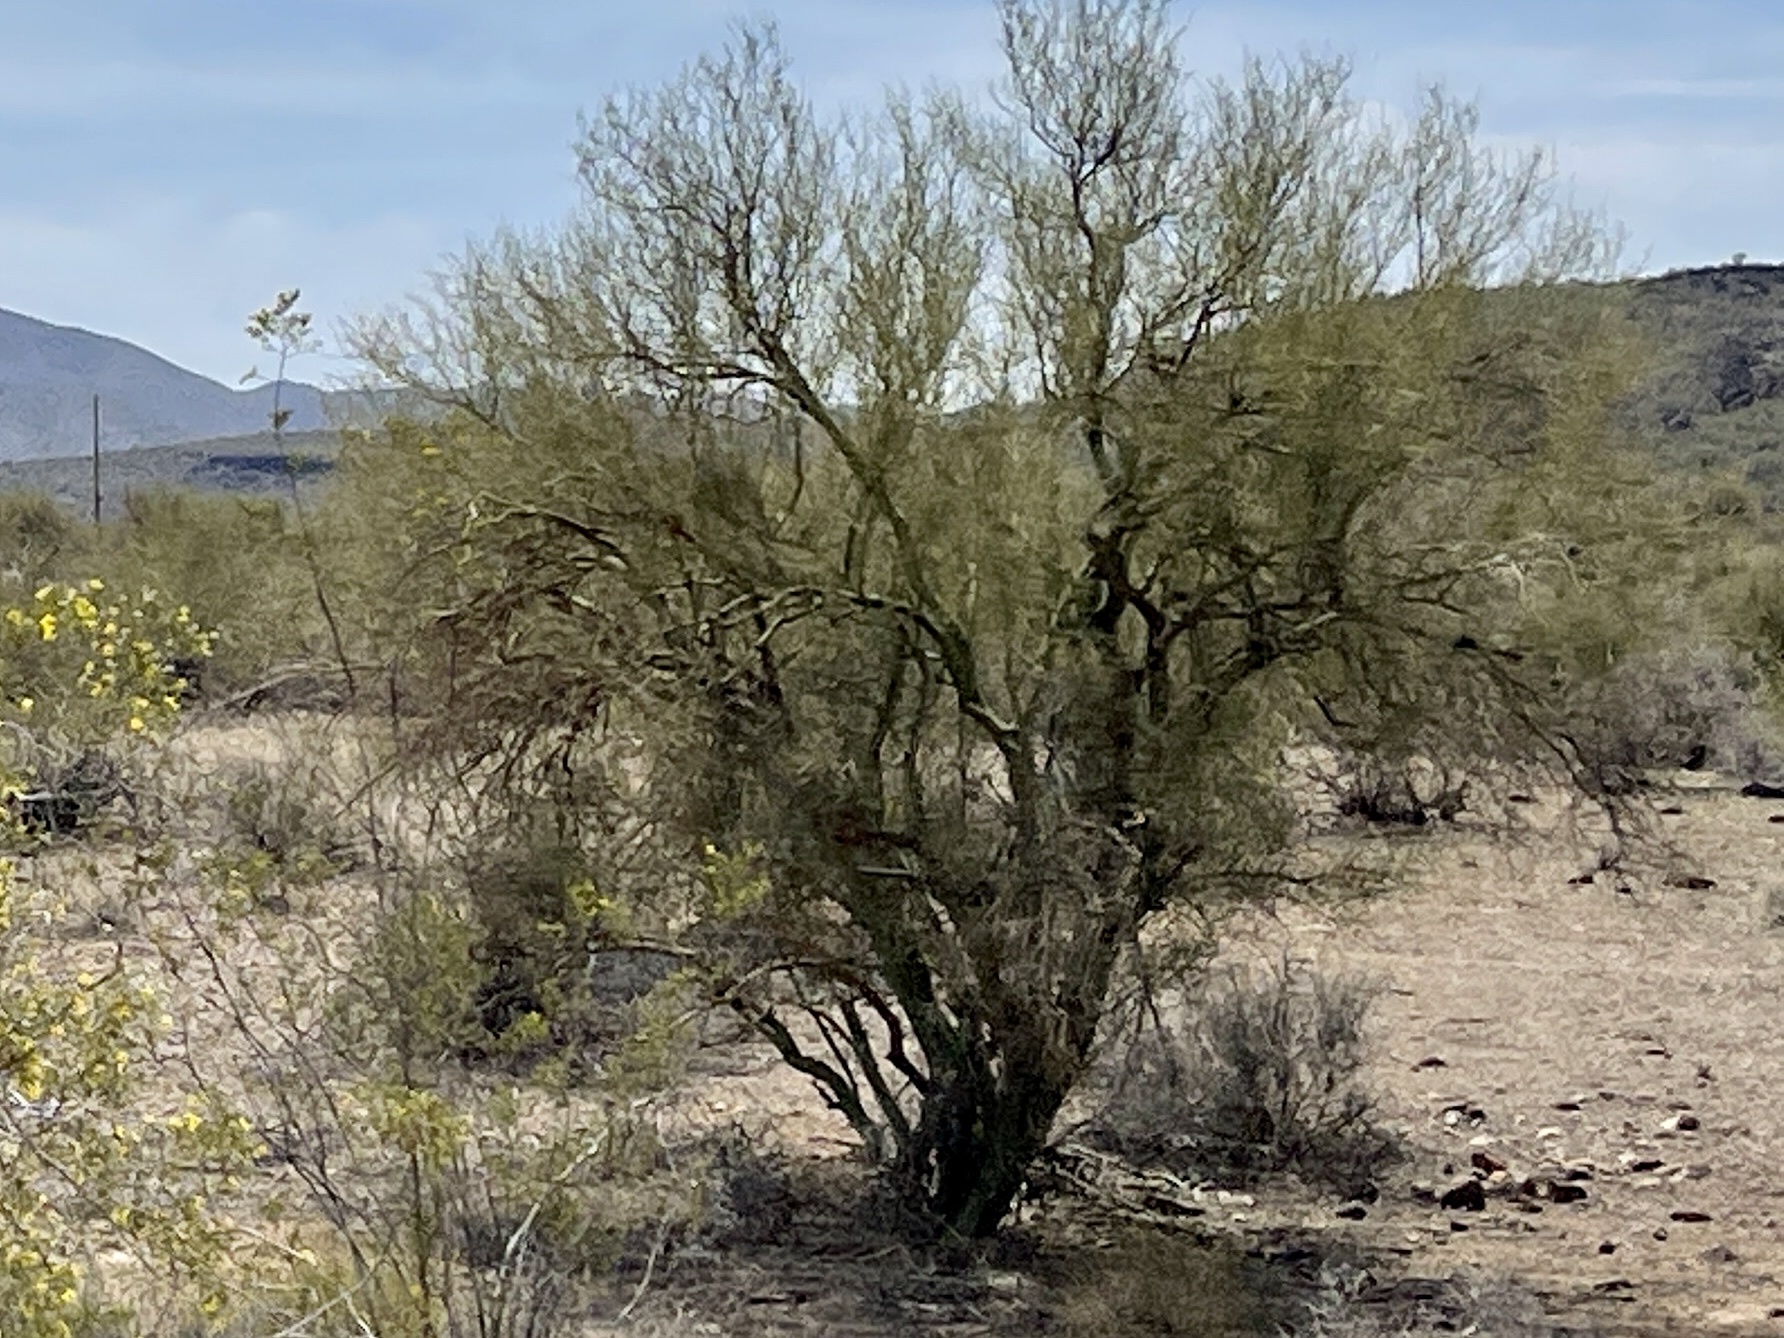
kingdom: Plantae
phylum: Tracheophyta
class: Magnoliopsida
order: Fabales
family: Fabaceae
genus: Parkinsonia
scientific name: Parkinsonia microphylla
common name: Yellow paloverde
